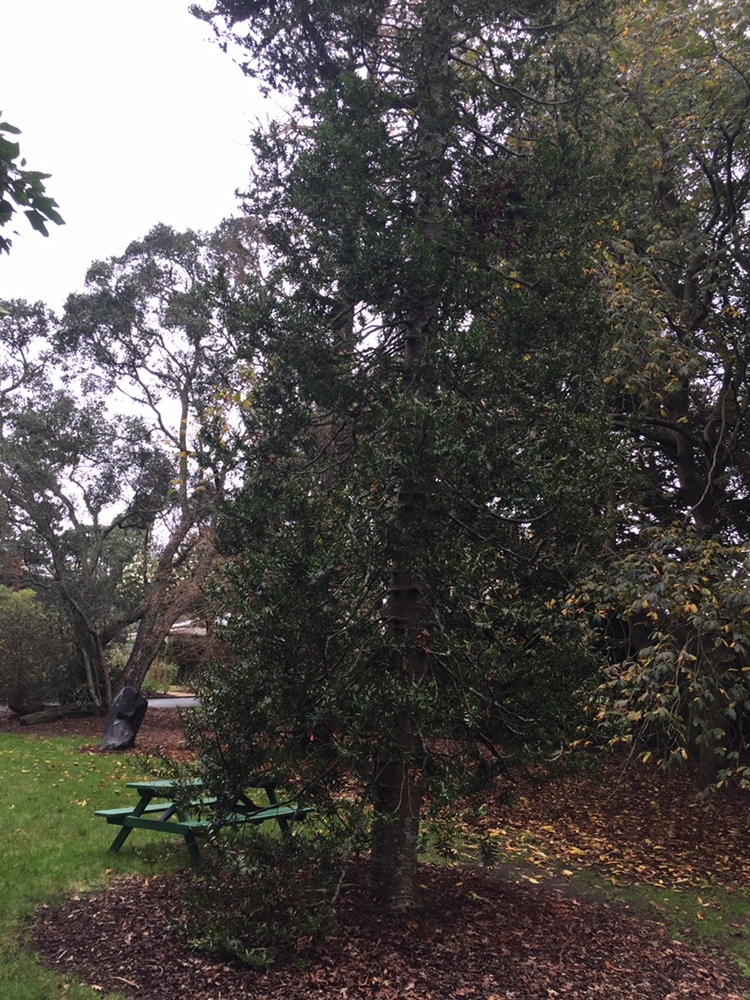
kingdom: Animalia
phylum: Arthropoda
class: Insecta
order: Lepidoptera
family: Gracillariidae
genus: Acrocercops
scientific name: Acrocercops leucotoma
